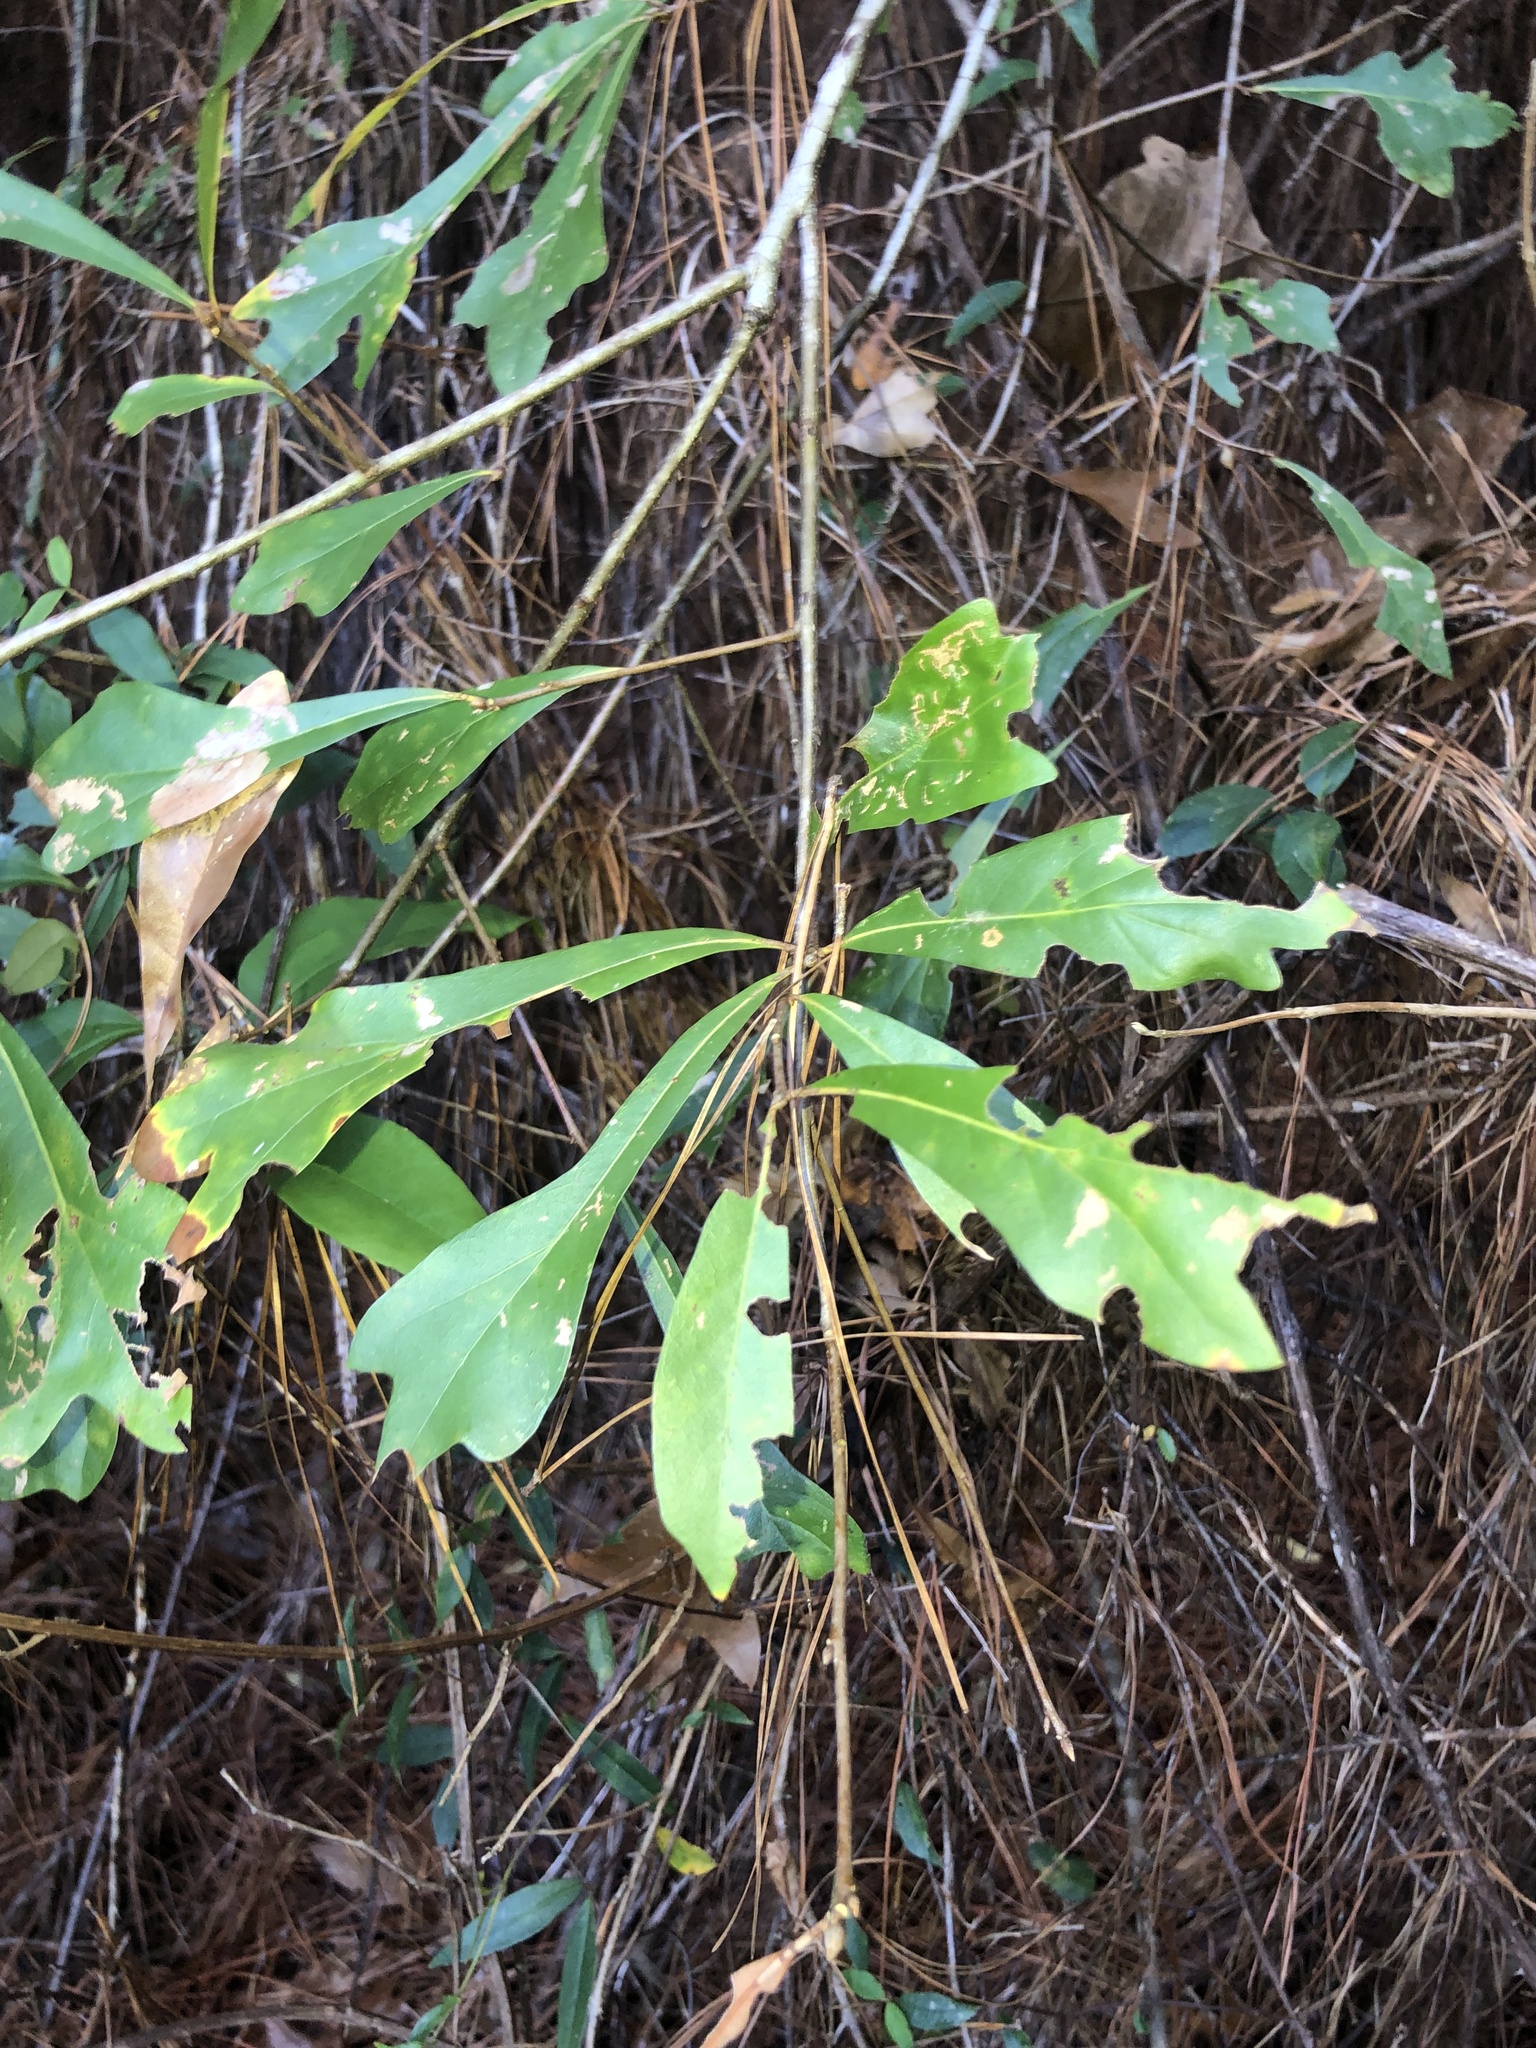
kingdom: Plantae
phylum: Tracheophyta
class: Magnoliopsida
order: Fagales
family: Fagaceae
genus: Quercus
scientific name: Quercus nigra
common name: Water oak
